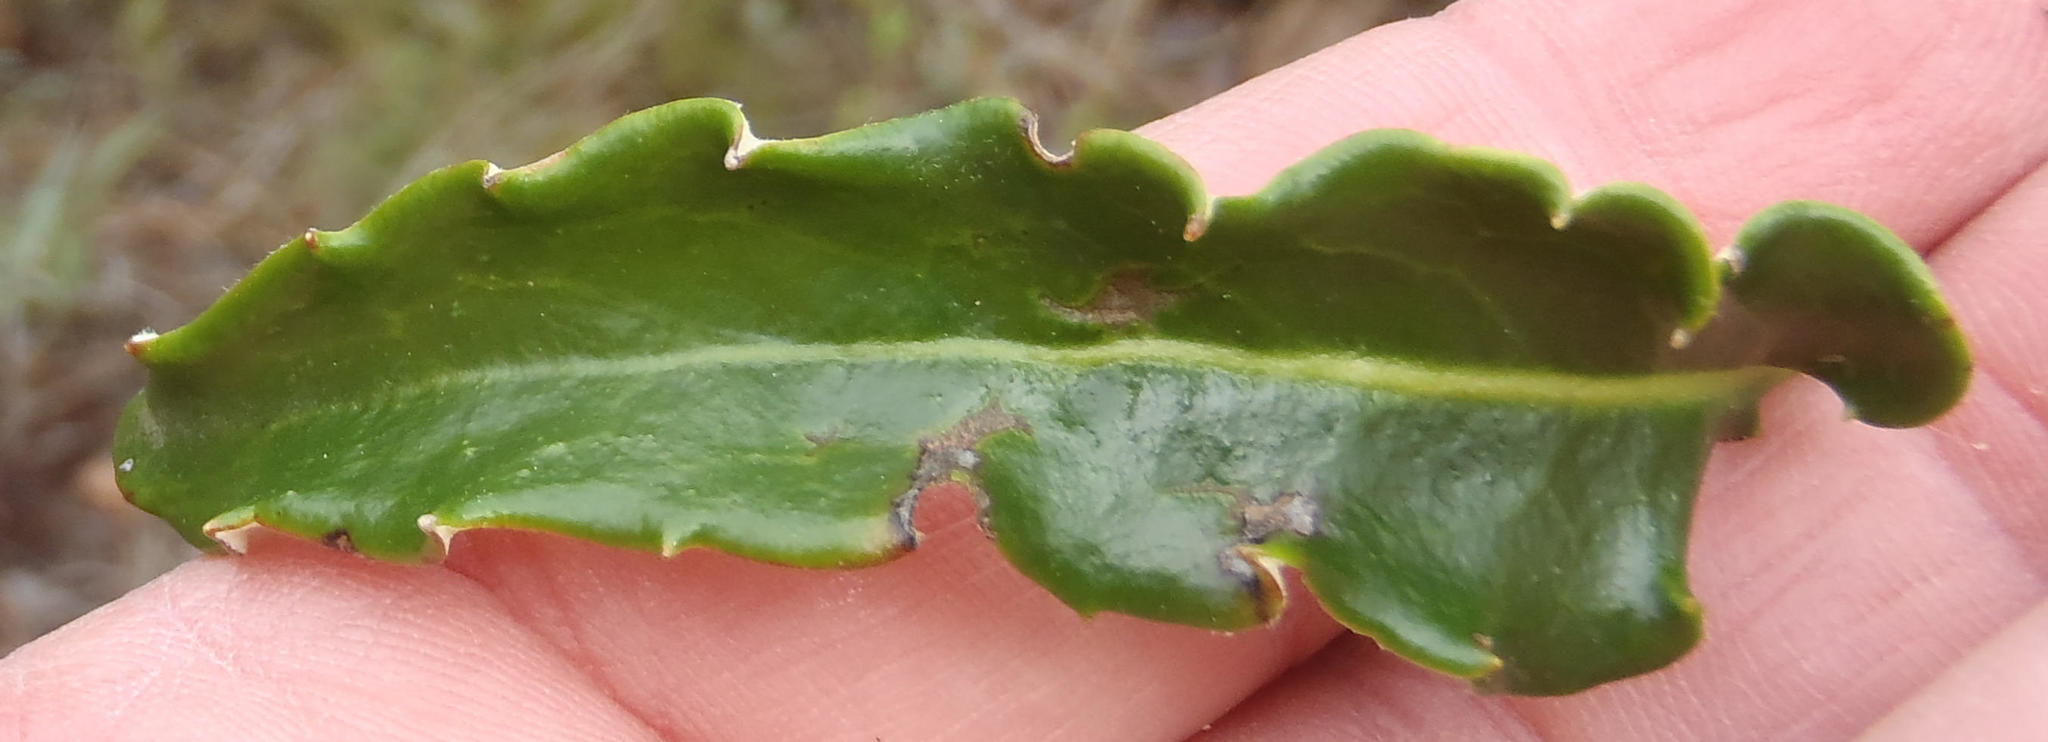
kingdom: Plantae
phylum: Tracheophyta
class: Magnoliopsida
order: Asterales
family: Asteraceae
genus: Gerbera
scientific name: Gerbera serrata
